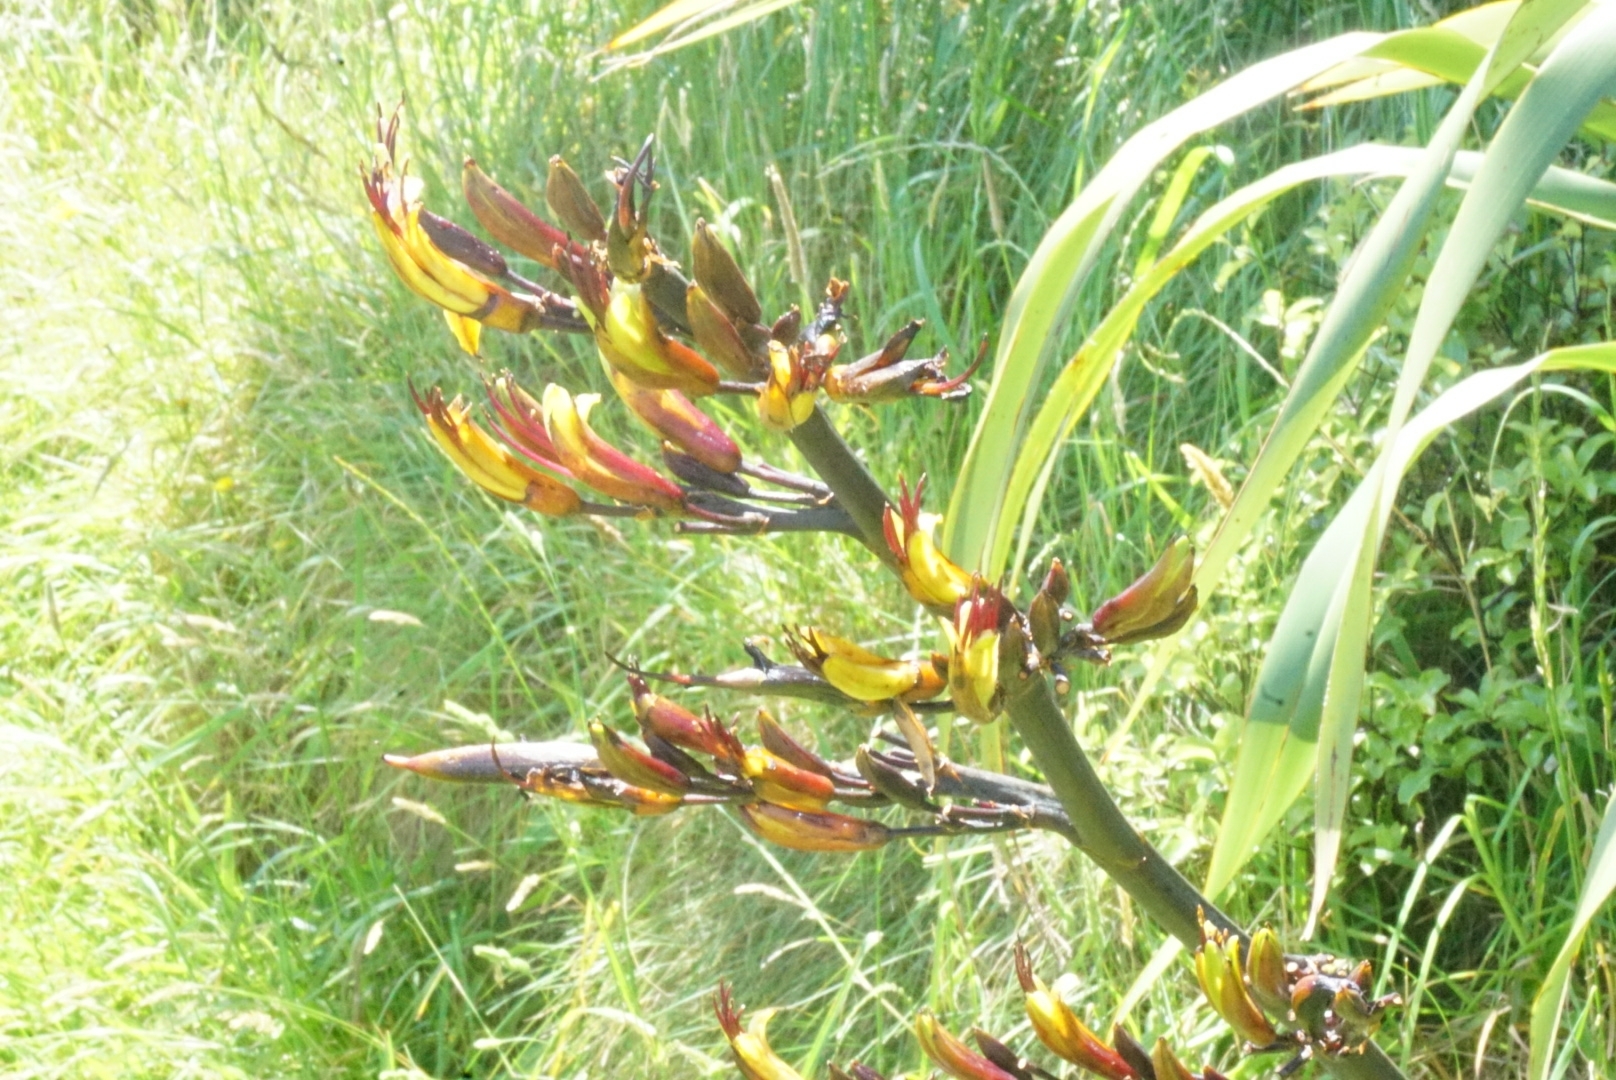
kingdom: Plantae
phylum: Tracheophyta
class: Liliopsida
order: Asparagales
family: Asphodelaceae
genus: Phormium
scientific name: Phormium tenax
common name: New zealand flax
